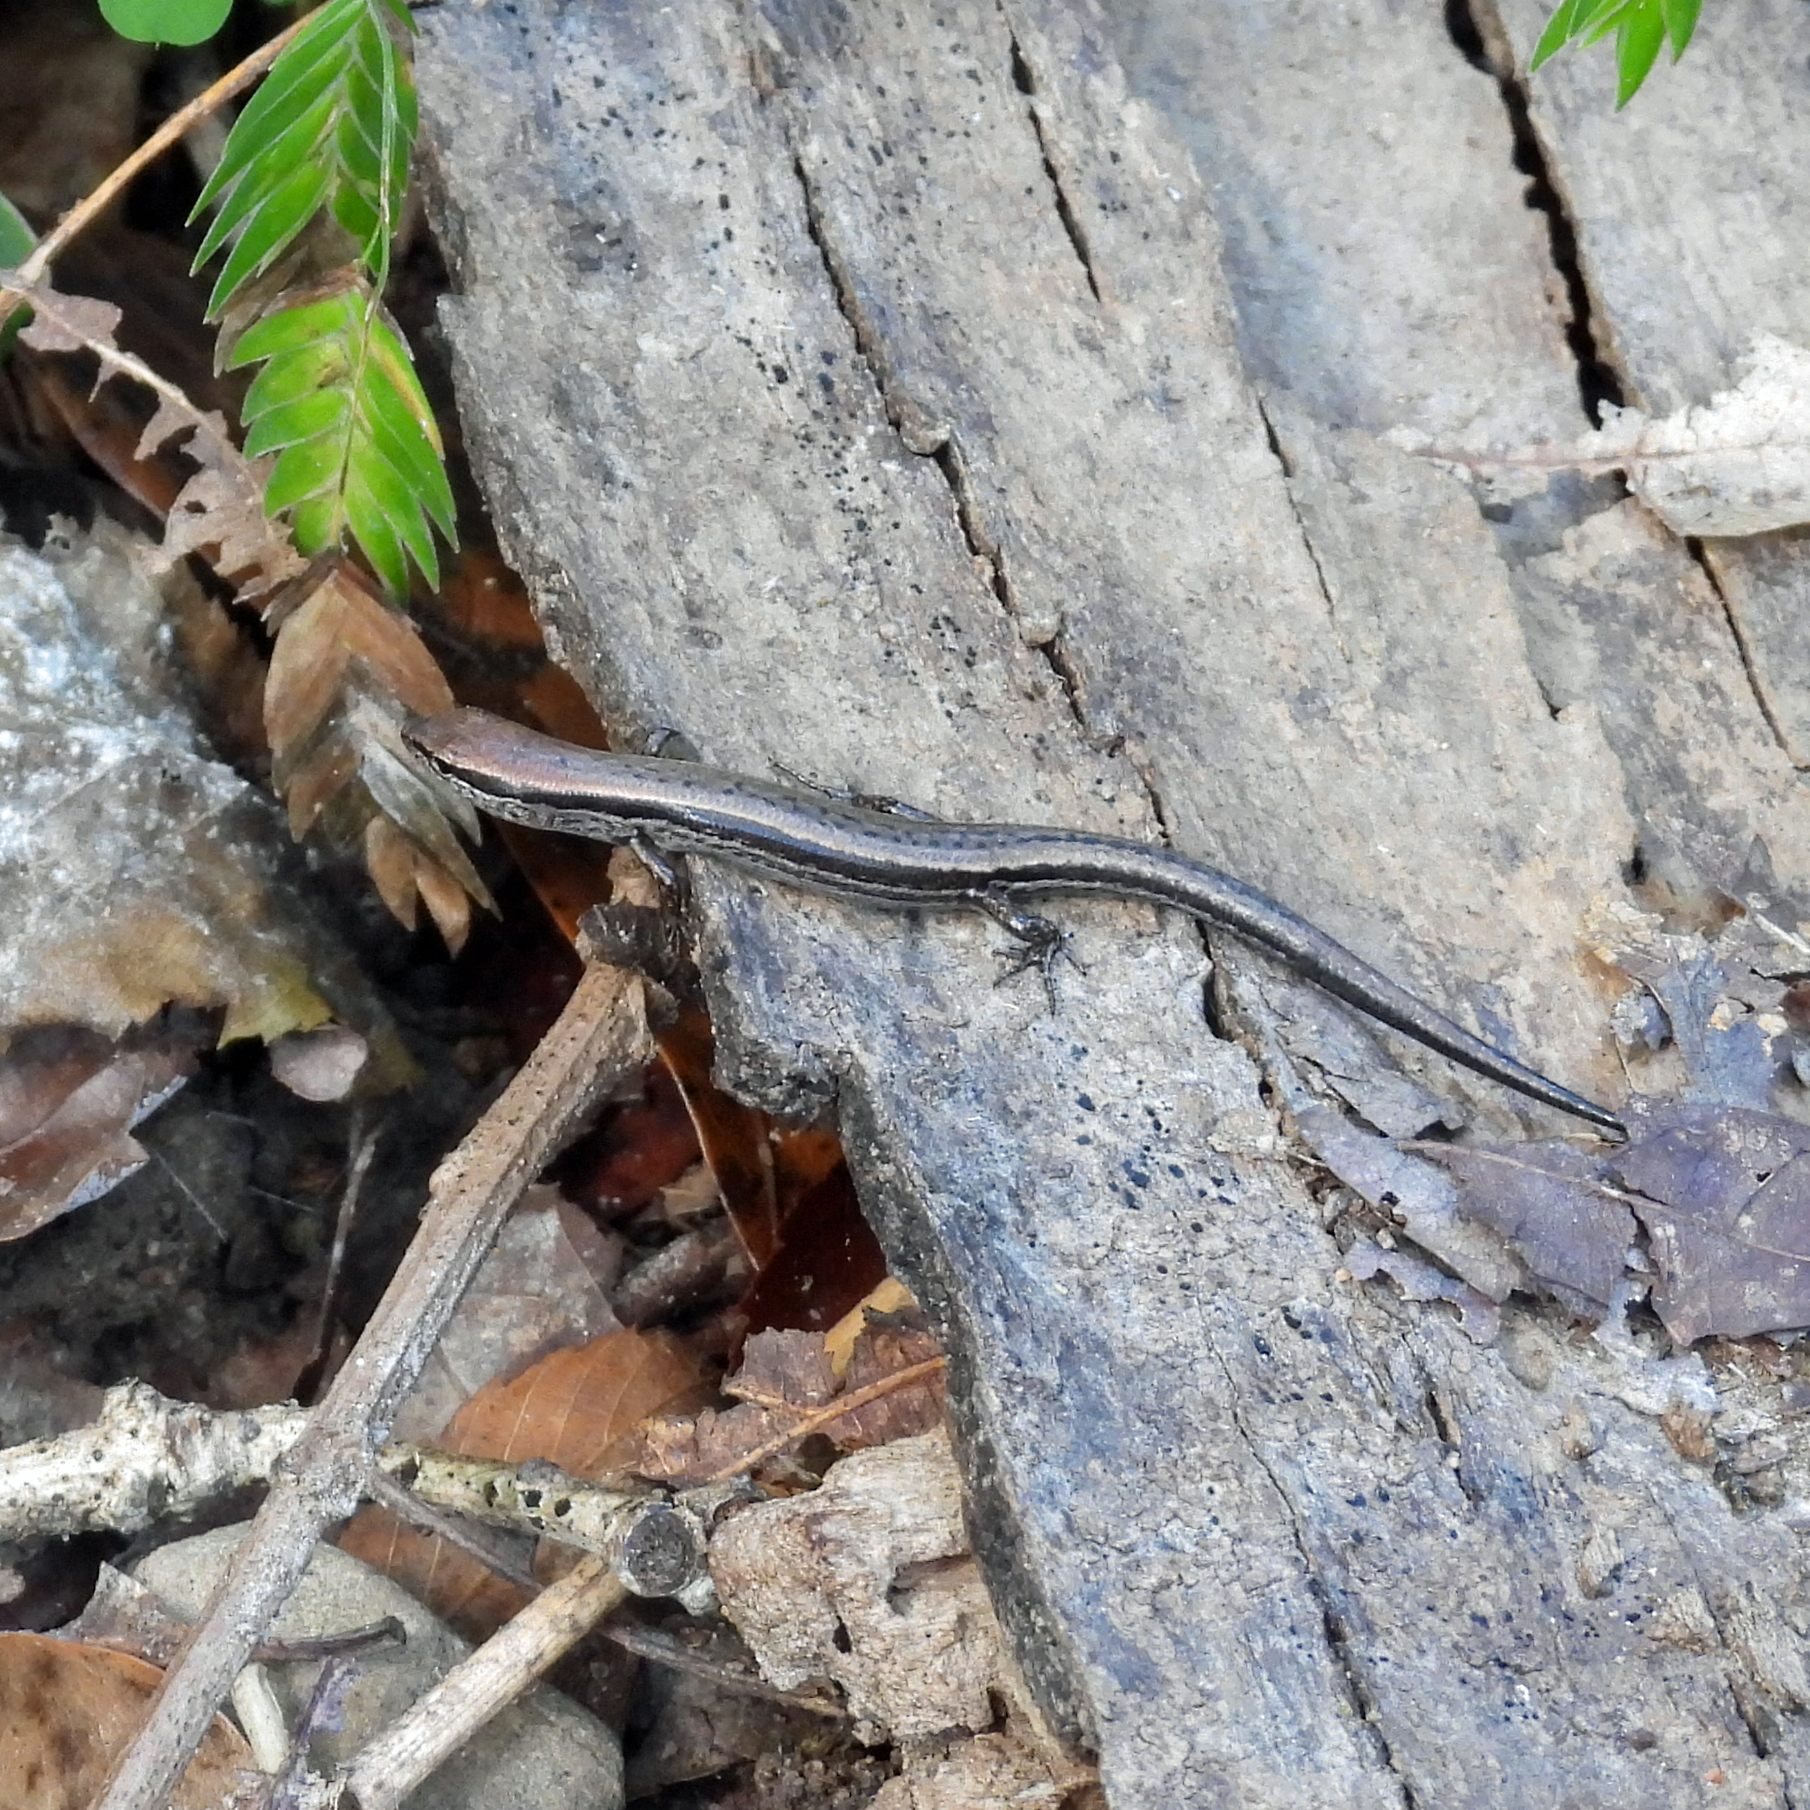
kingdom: Animalia
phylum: Chordata
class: Squamata
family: Scincidae
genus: Scincella
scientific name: Scincella lateralis
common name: Ground skink
